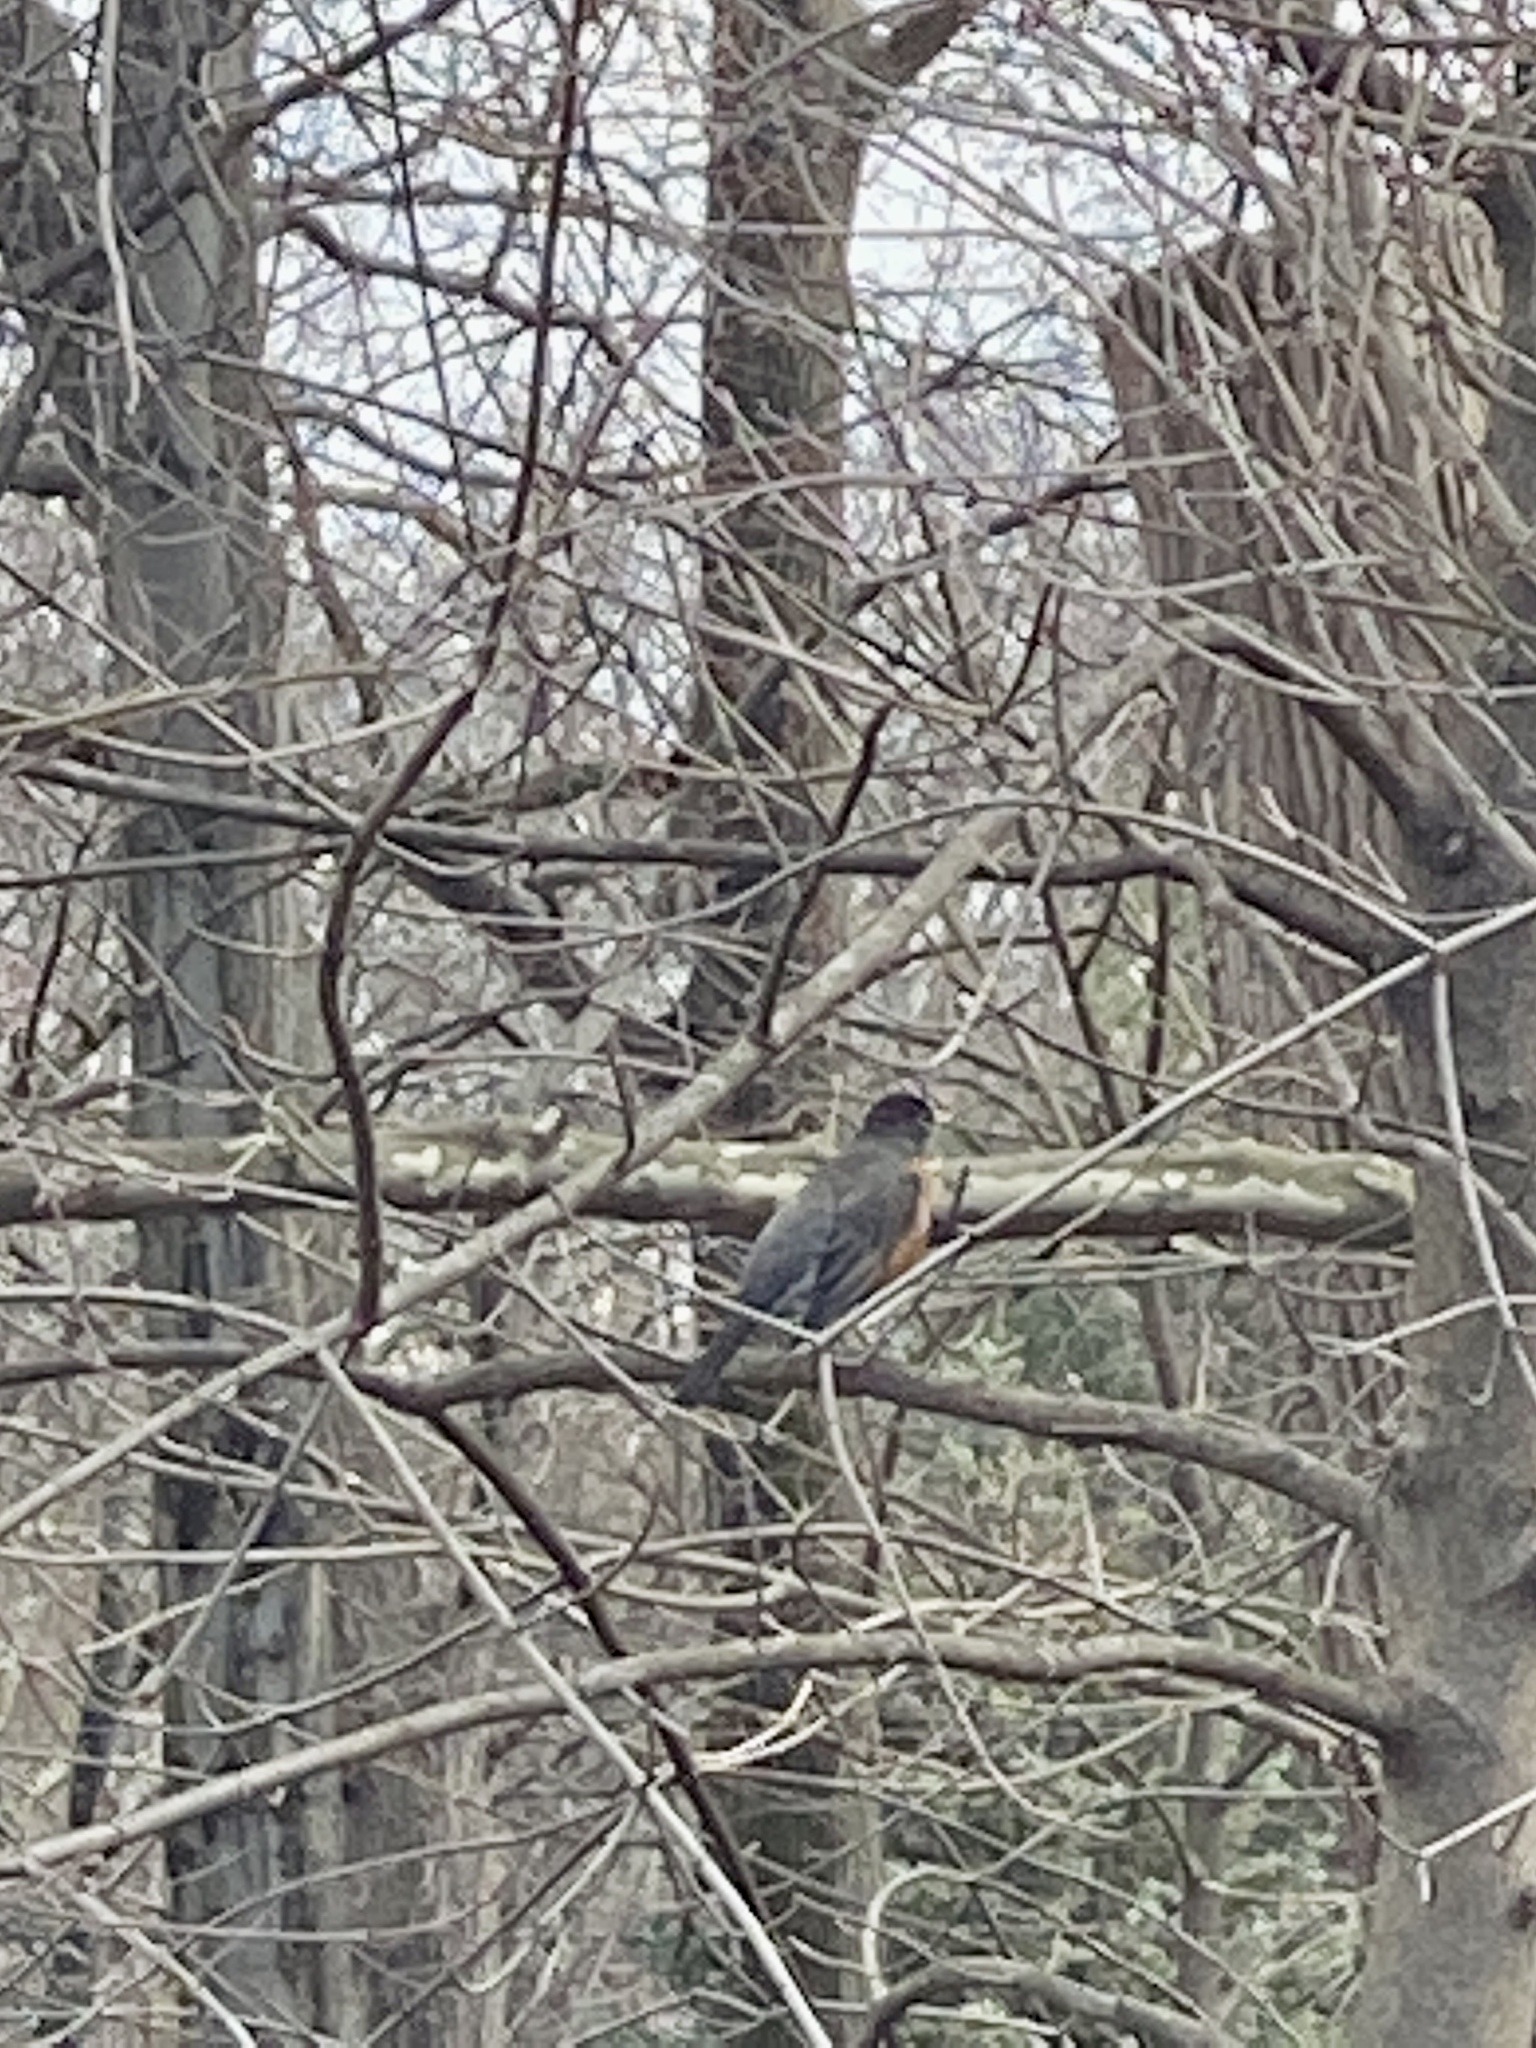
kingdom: Animalia
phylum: Chordata
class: Aves
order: Passeriformes
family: Turdidae
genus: Turdus
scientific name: Turdus migratorius
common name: American robin
